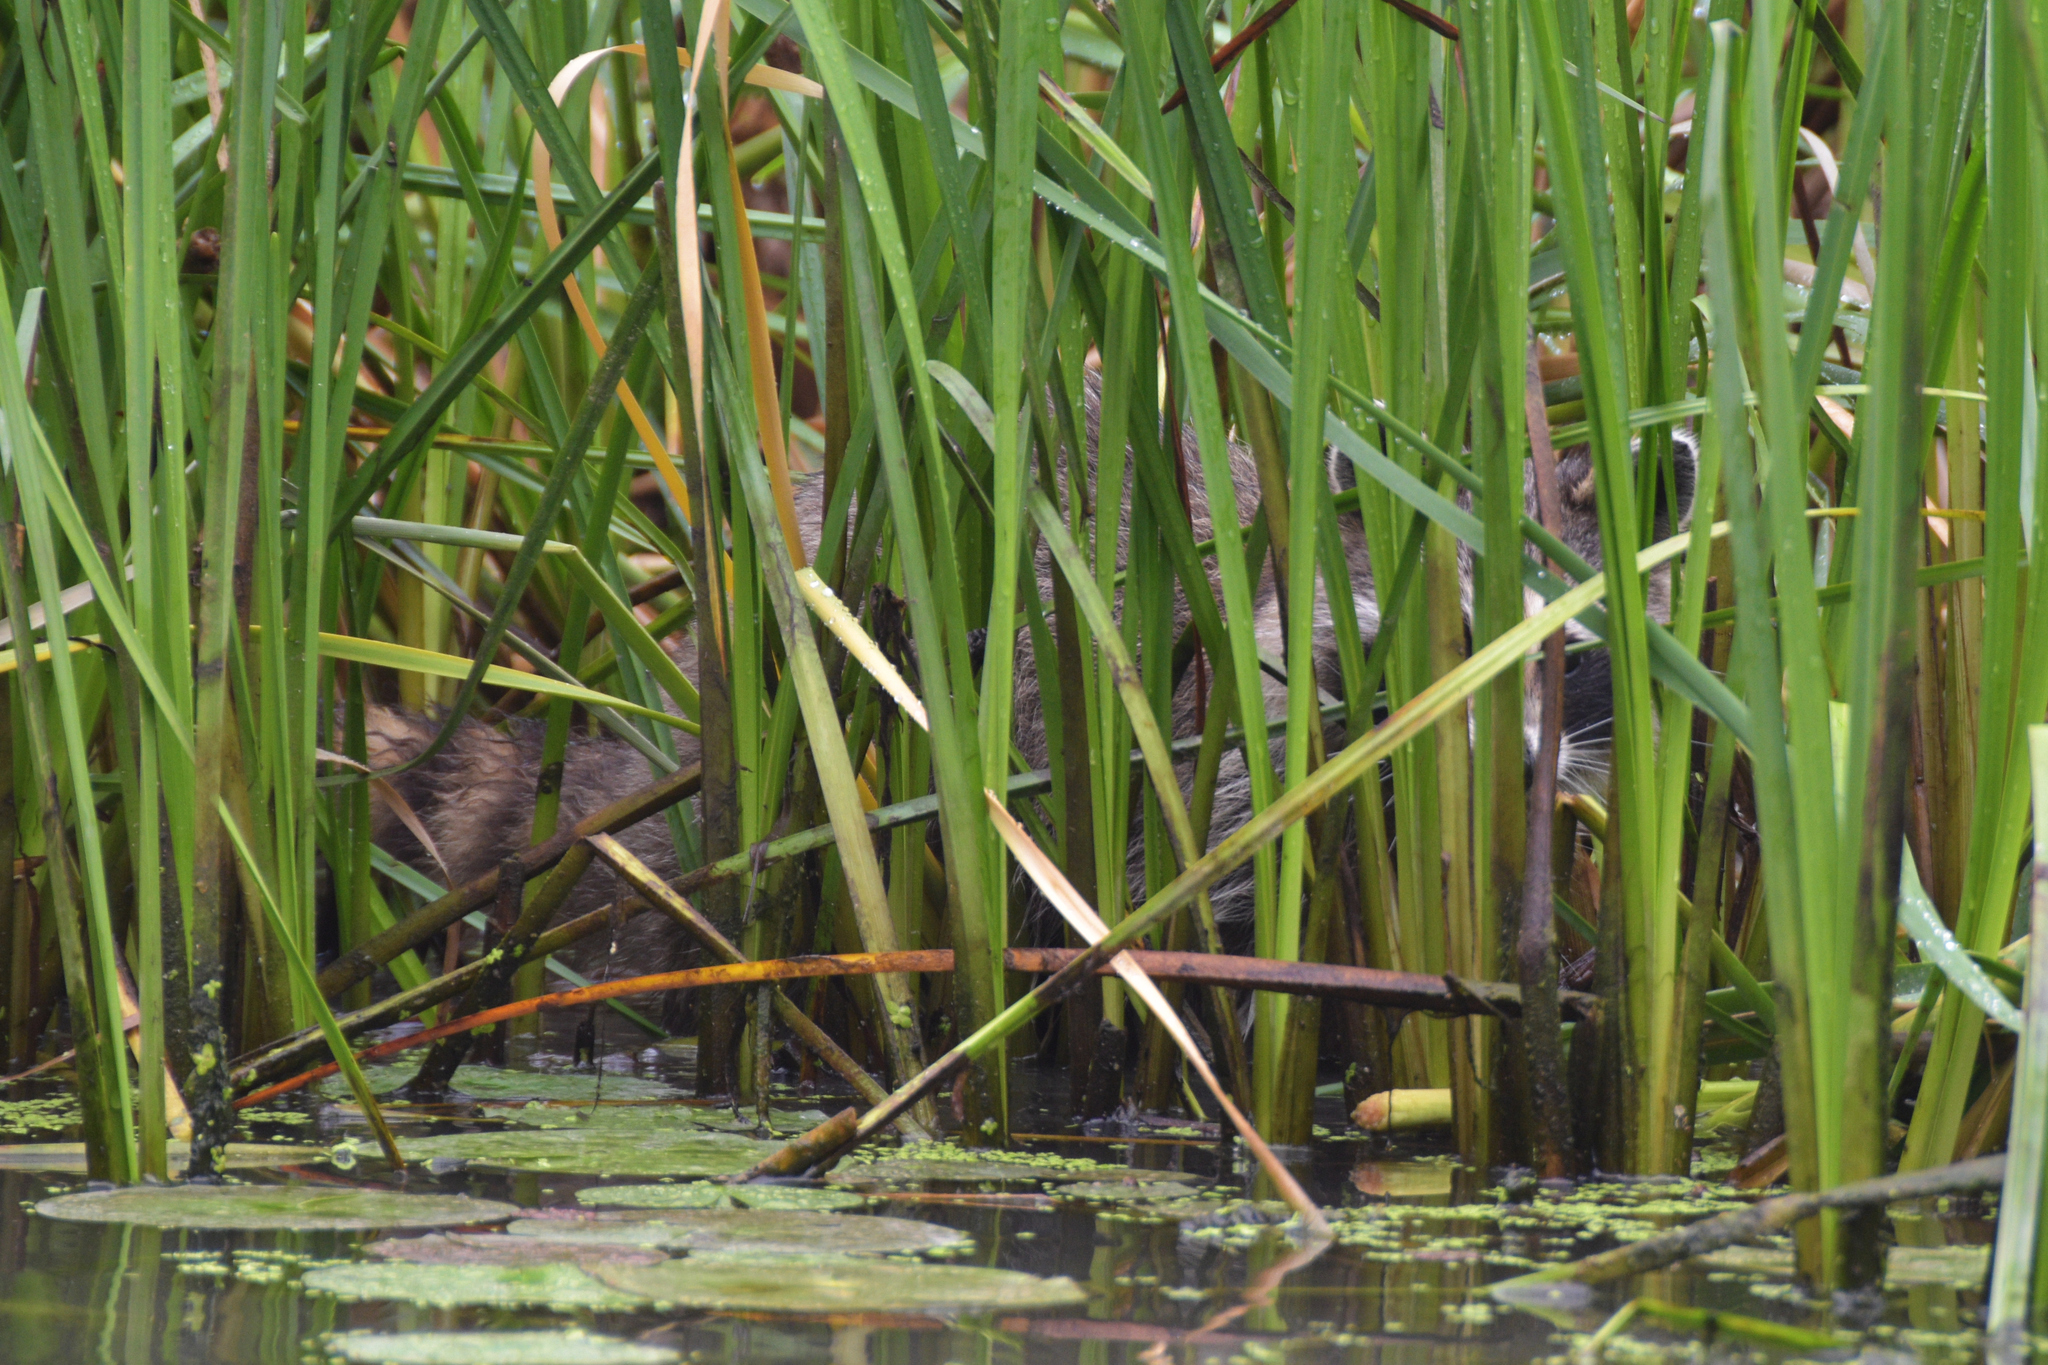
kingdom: Animalia
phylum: Chordata
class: Mammalia
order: Carnivora
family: Procyonidae
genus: Procyon
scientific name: Procyon lotor
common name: Raccoon
